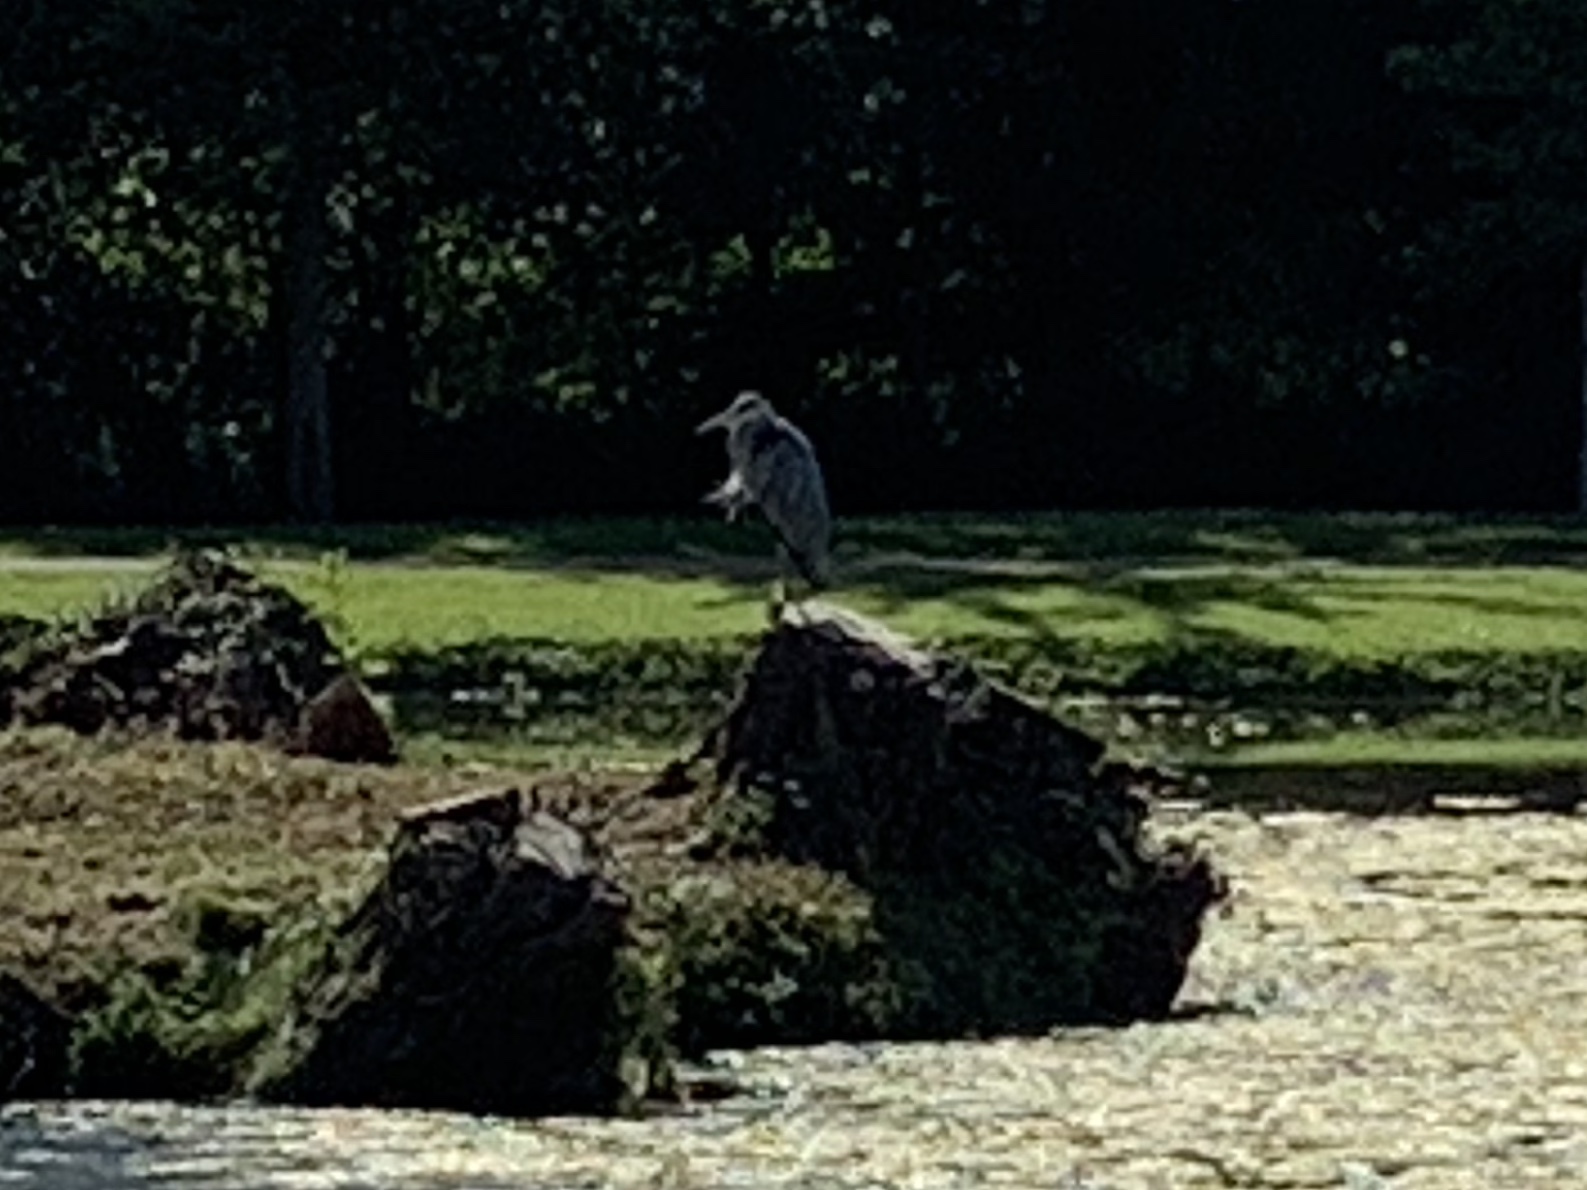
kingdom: Animalia
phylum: Chordata
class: Aves
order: Pelecaniformes
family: Ardeidae
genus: Ardea
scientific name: Ardea cinerea
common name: Grey heron
